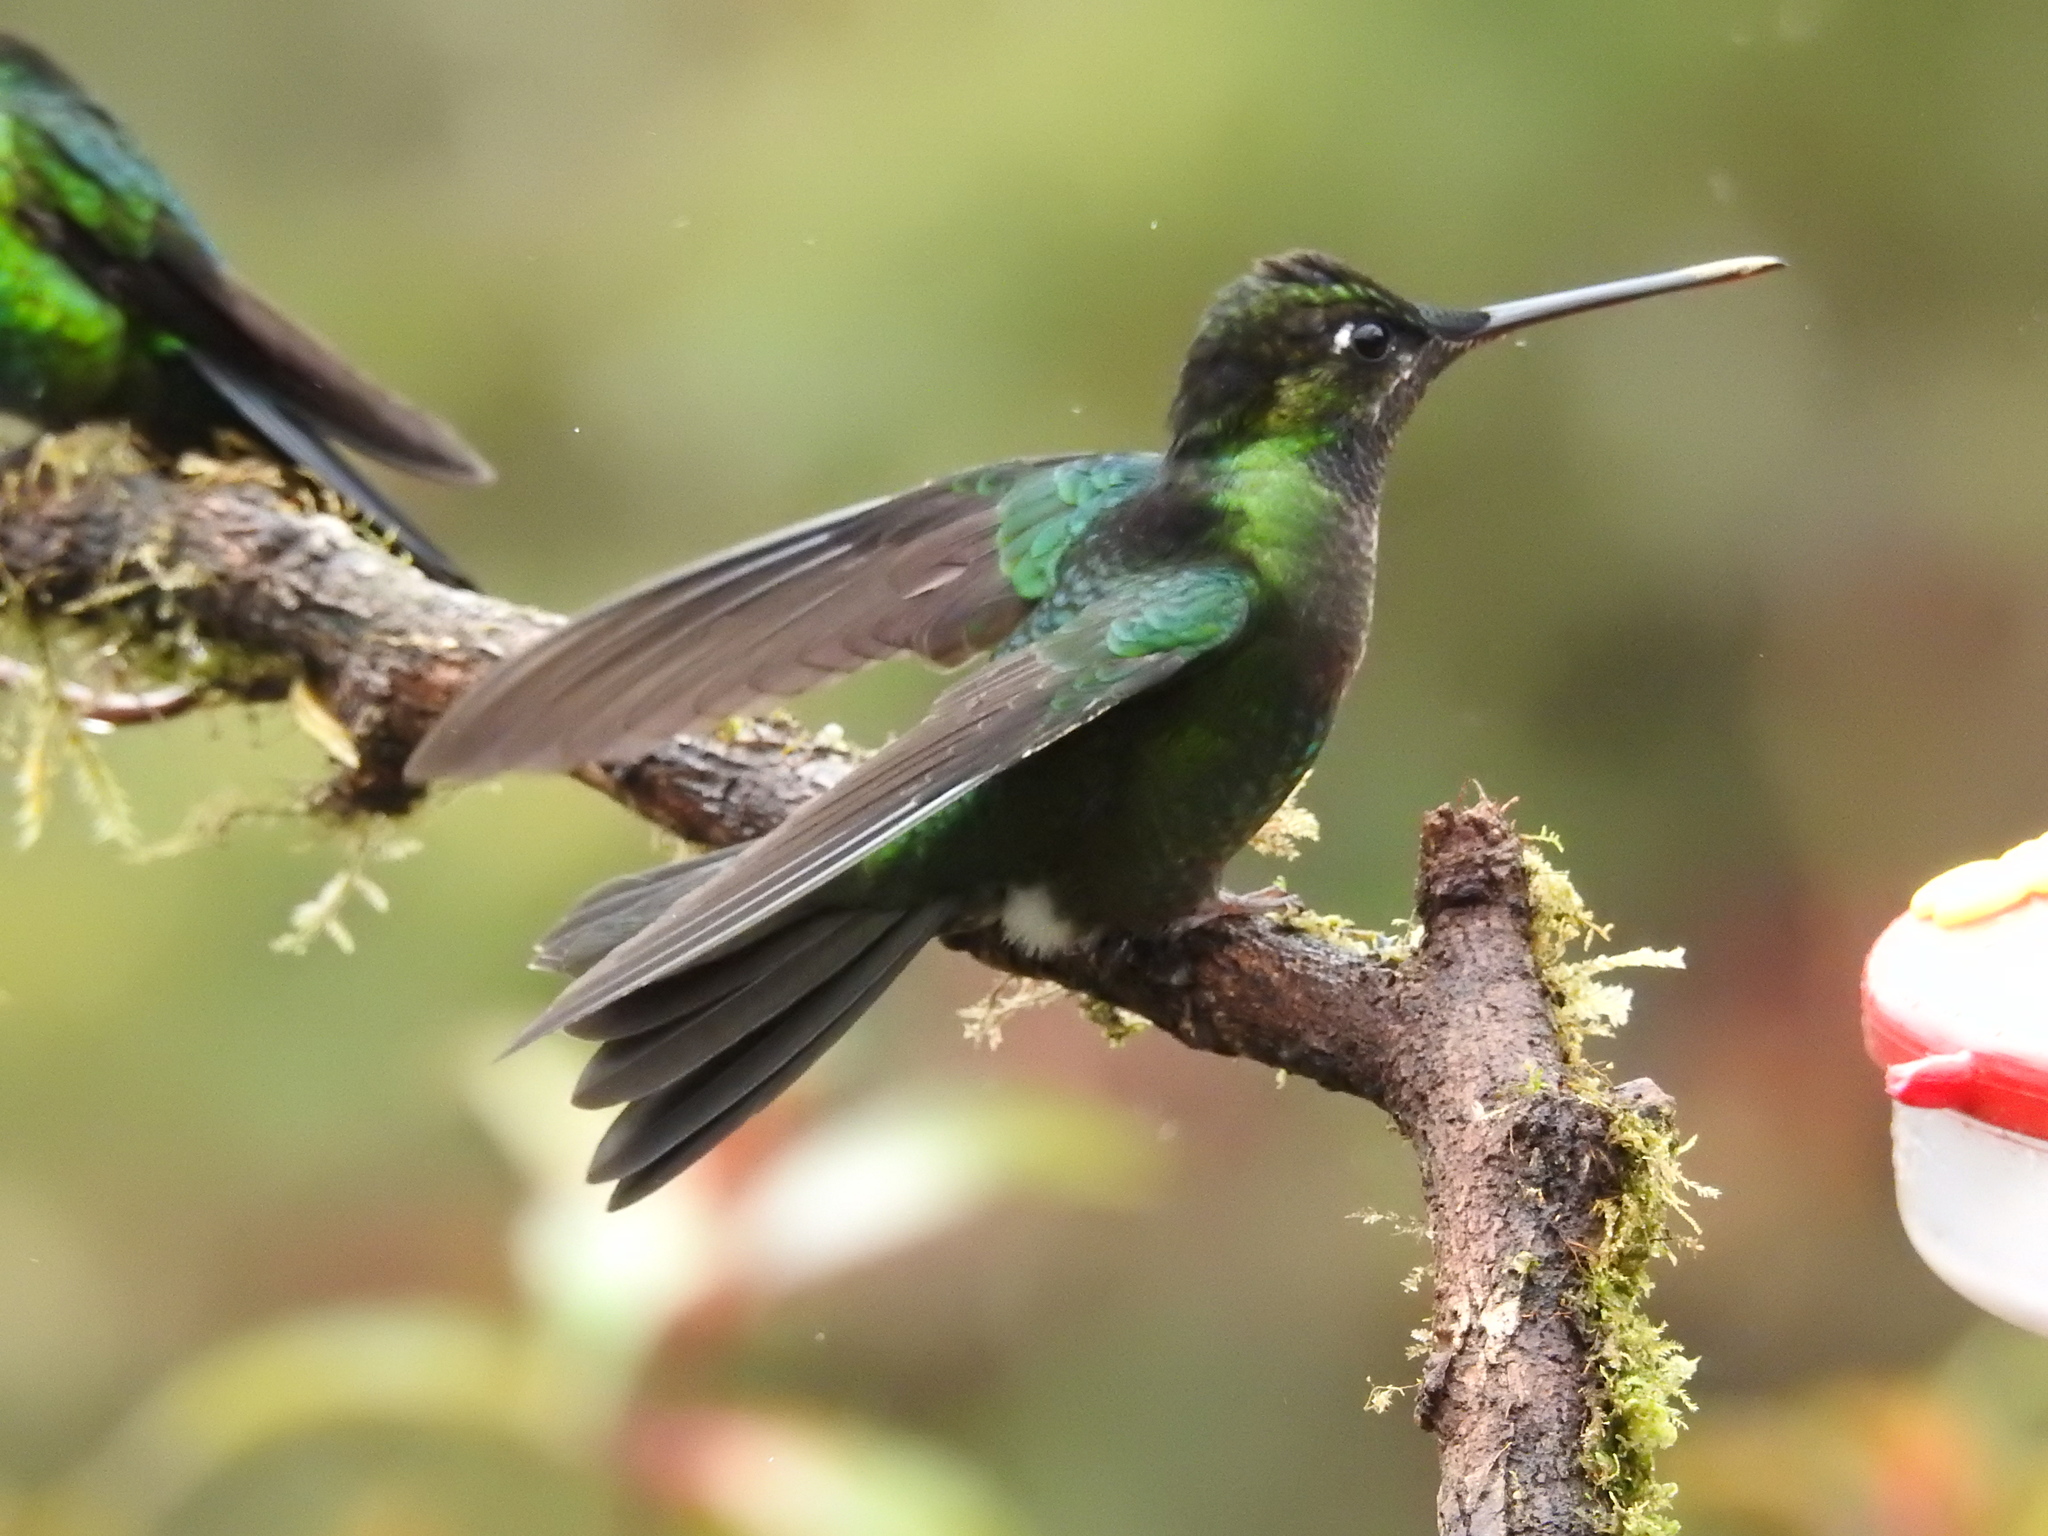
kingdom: Animalia
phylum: Chordata
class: Aves
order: Apodiformes
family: Trochilidae
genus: Eugenes
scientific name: Eugenes spectabilis
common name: Talamanca hummingbird
